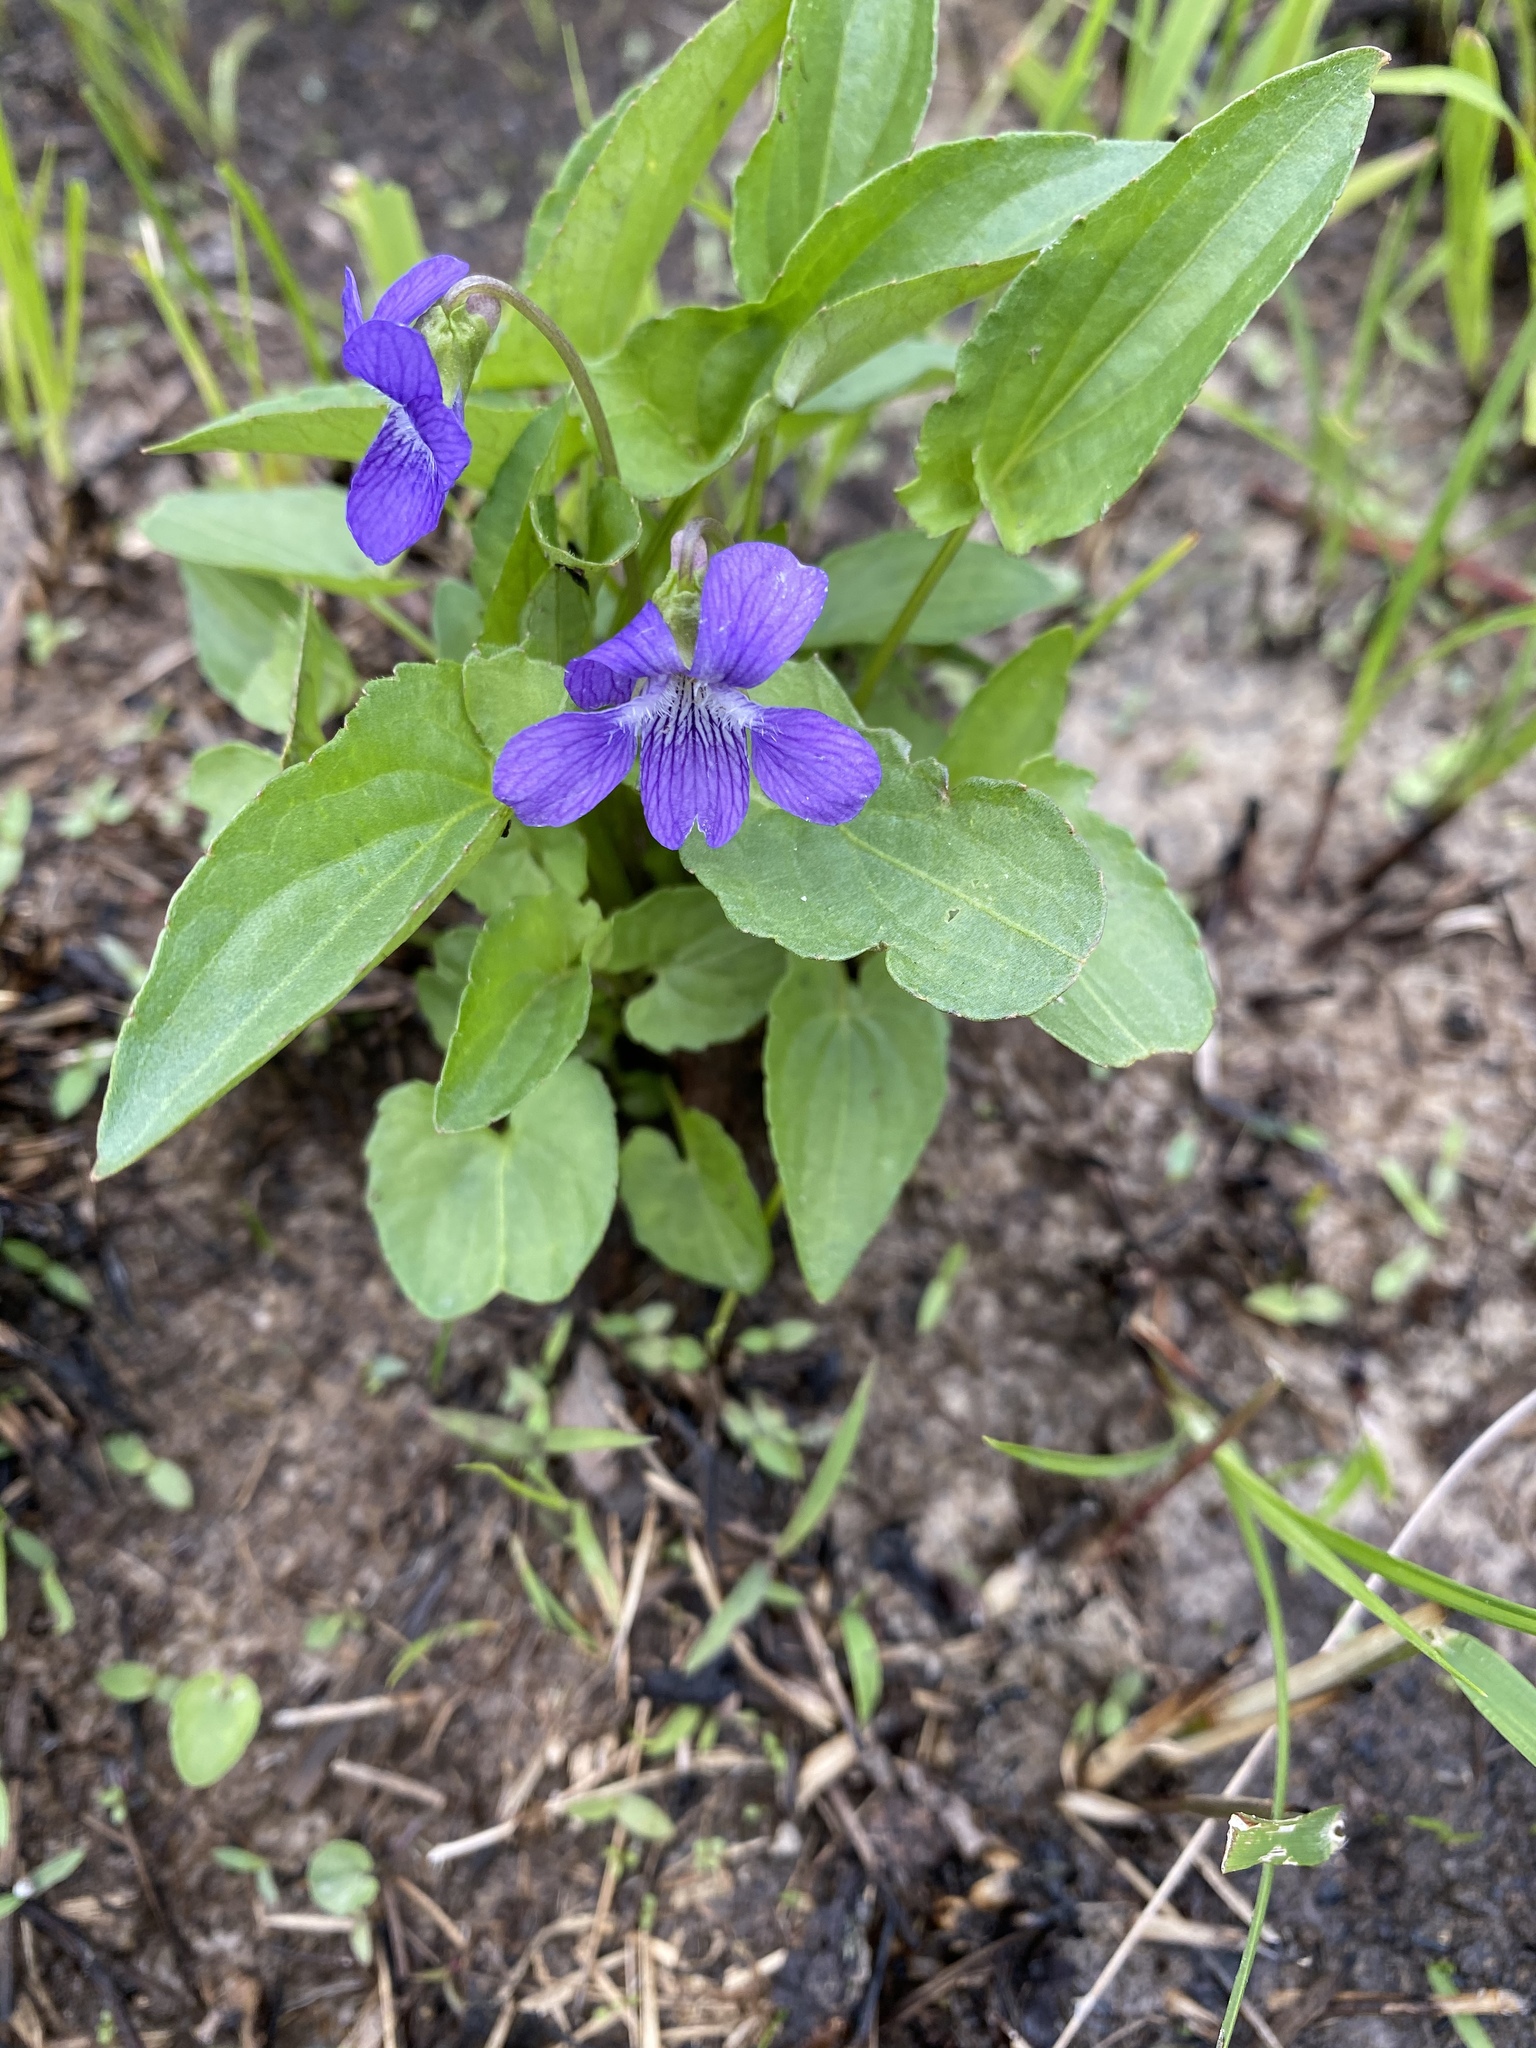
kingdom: Plantae
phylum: Tracheophyta
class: Magnoliopsida
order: Malpighiales
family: Violaceae
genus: Viola
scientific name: Viola sagittata
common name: Arrowhead violet
